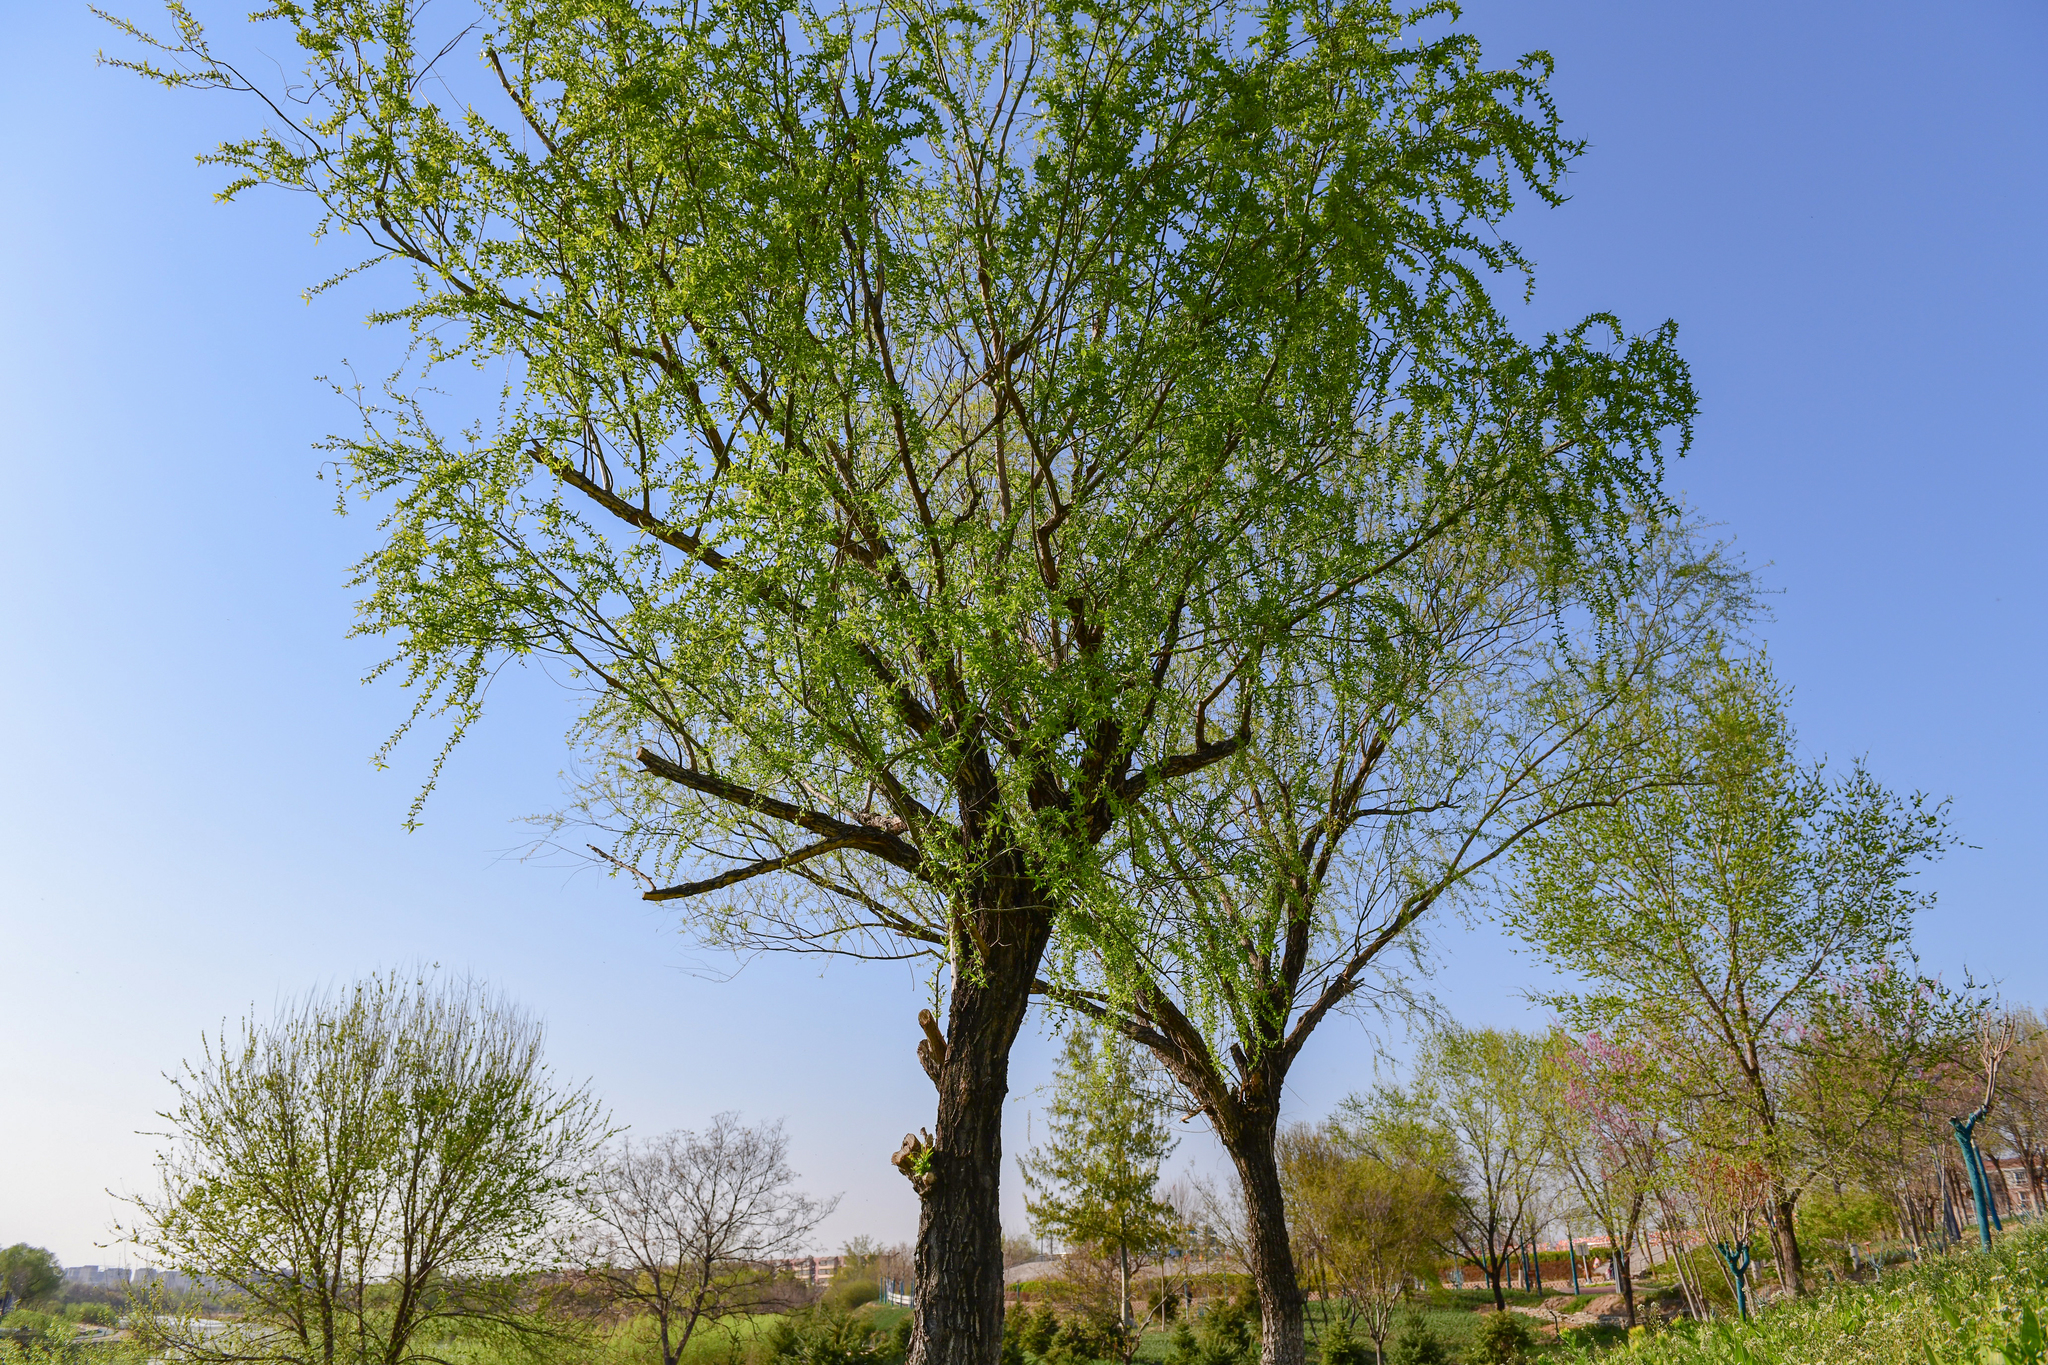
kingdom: Plantae
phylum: Tracheophyta
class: Magnoliopsida
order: Malpighiales
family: Salicaceae
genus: Salix
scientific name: Salix babylonica
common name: Weeping willow
